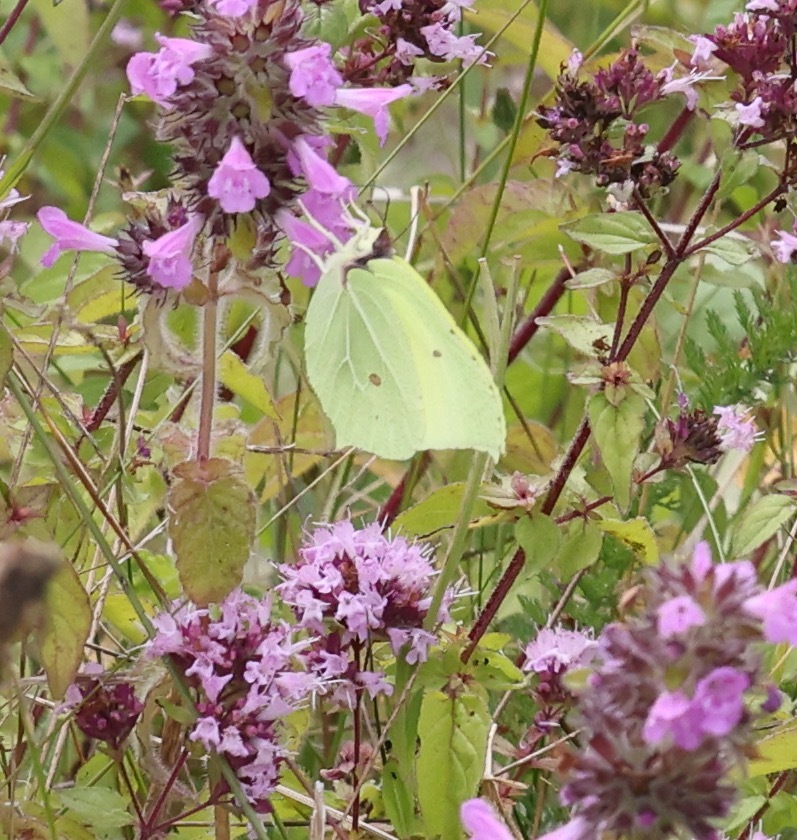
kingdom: Animalia
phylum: Arthropoda
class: Insecta
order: Lepidoptera
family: Pieridae
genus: Gonepteryx
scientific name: Gonepteryx rhamni
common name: Brimstone
